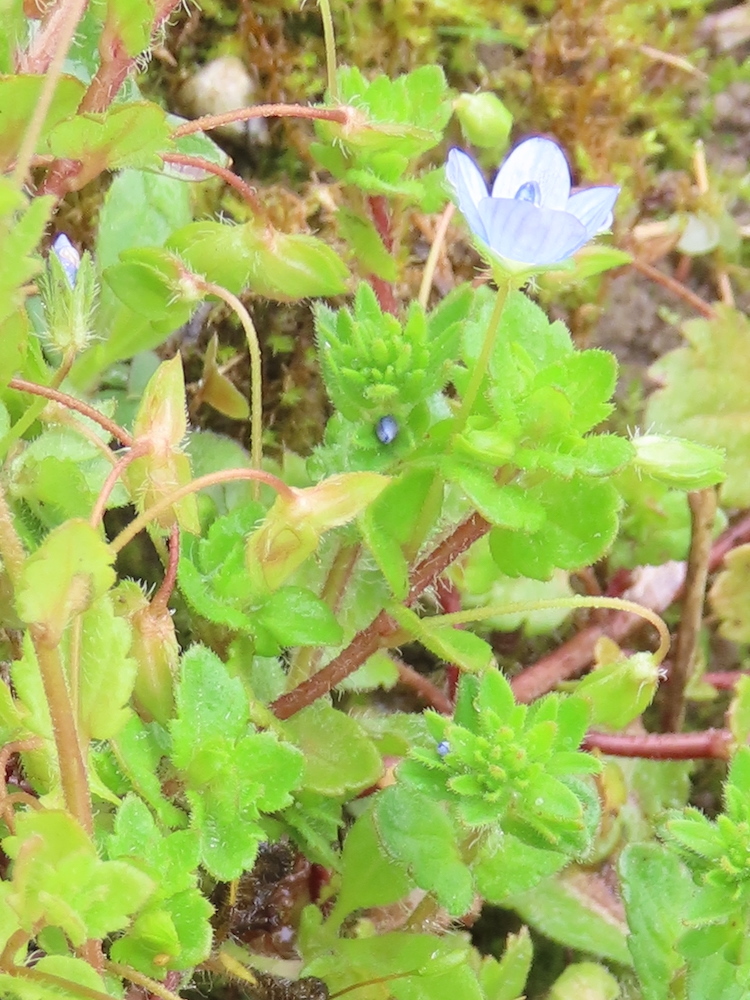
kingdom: Plantae
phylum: Tracheophyta
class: Magnoliopsida
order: Lamiales
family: Plantaginaceae
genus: Veronica
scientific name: Veronica persica
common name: Common field-speedwell
